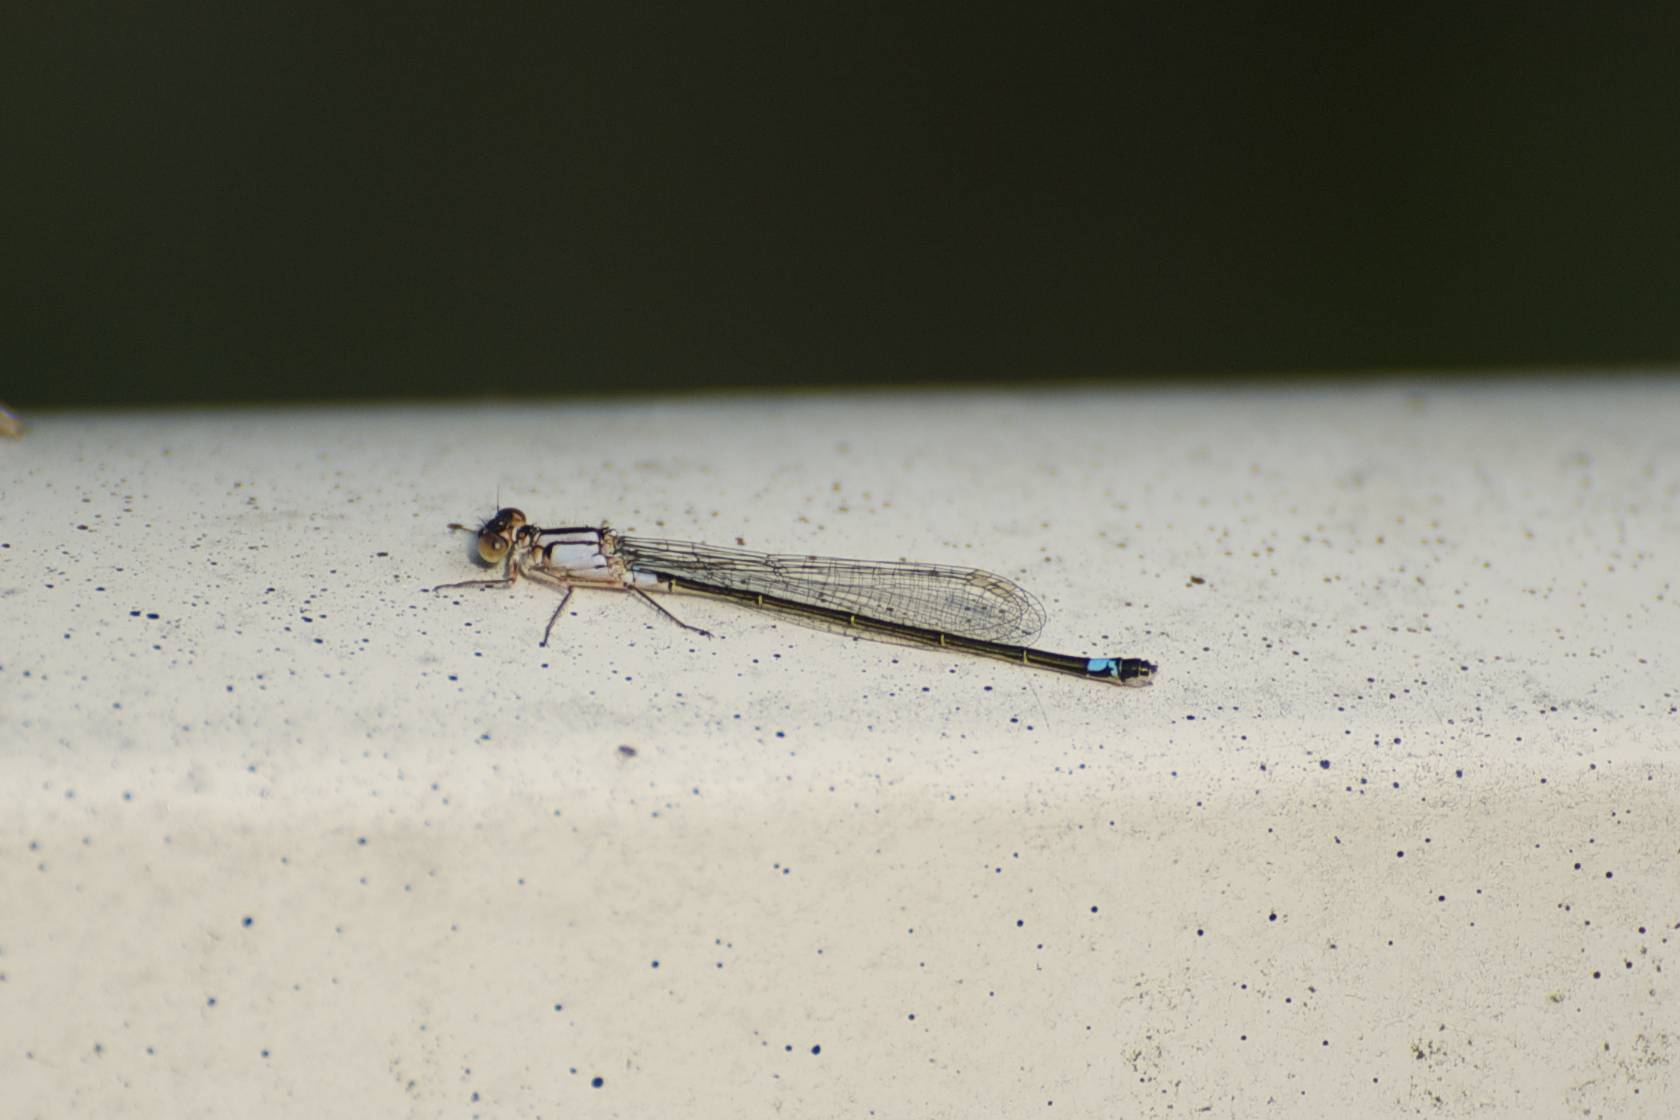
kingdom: Animalia
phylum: Arthropoda
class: Insecta
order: Odonata
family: Coenagrionidae
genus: Ischnura
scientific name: Ischnura cervula
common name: Pacific forktail
